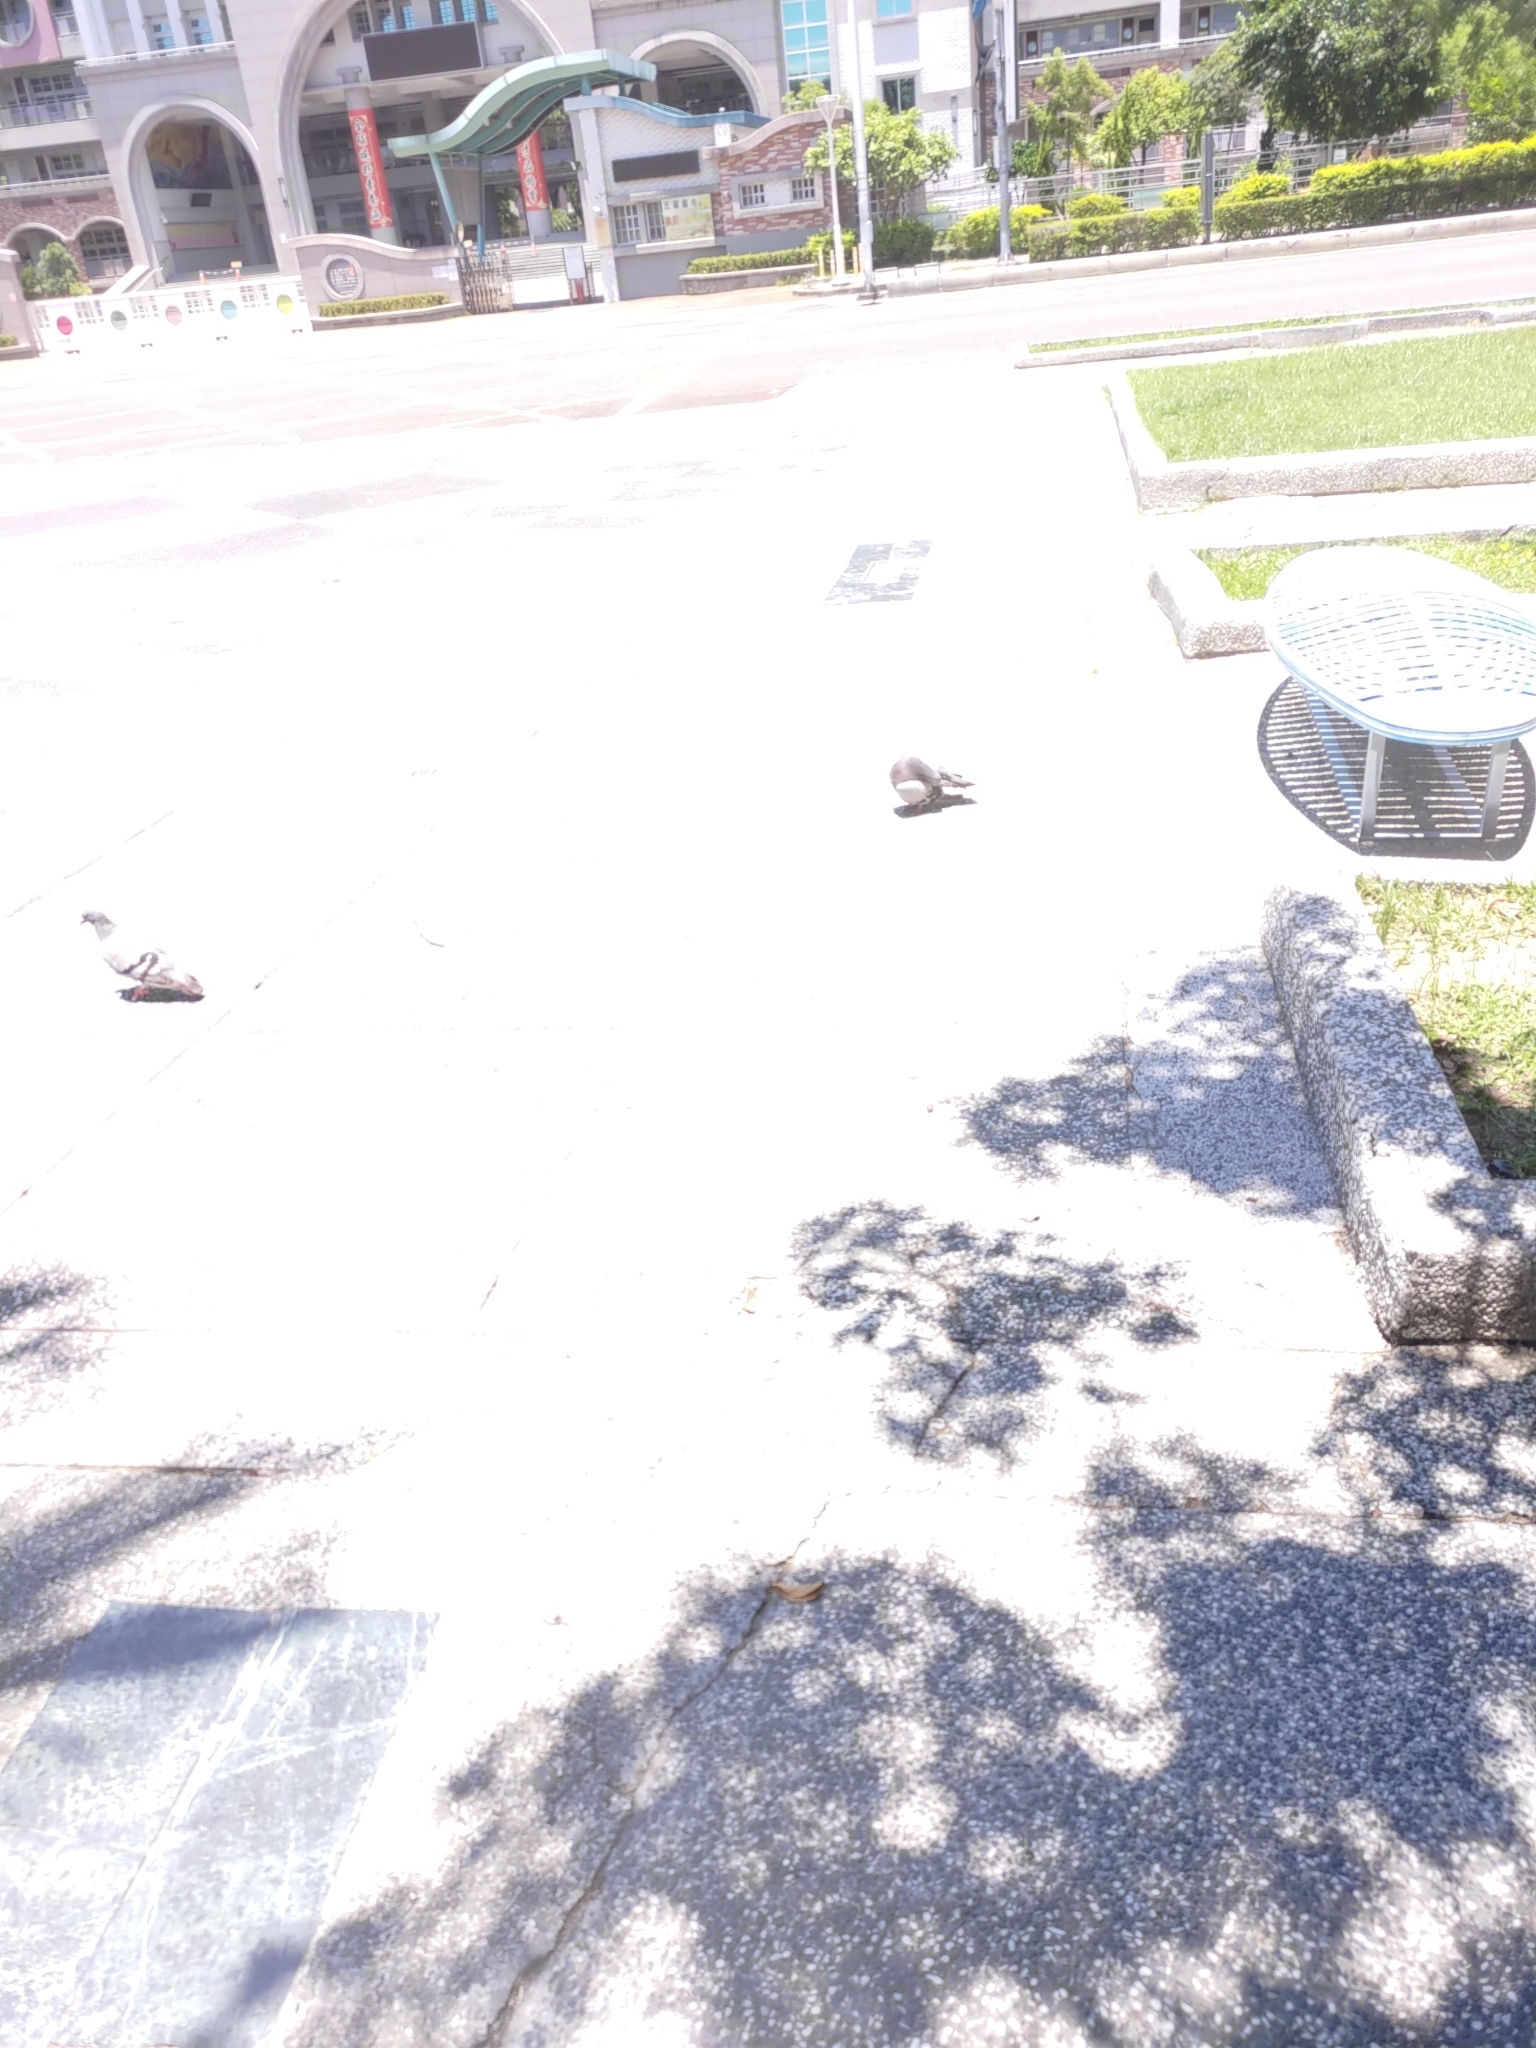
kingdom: Animalia
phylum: Chordata
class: Aves
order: Columbiformes
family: Columbidae
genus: Columba
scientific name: Columba livia
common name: Rock pigeon
